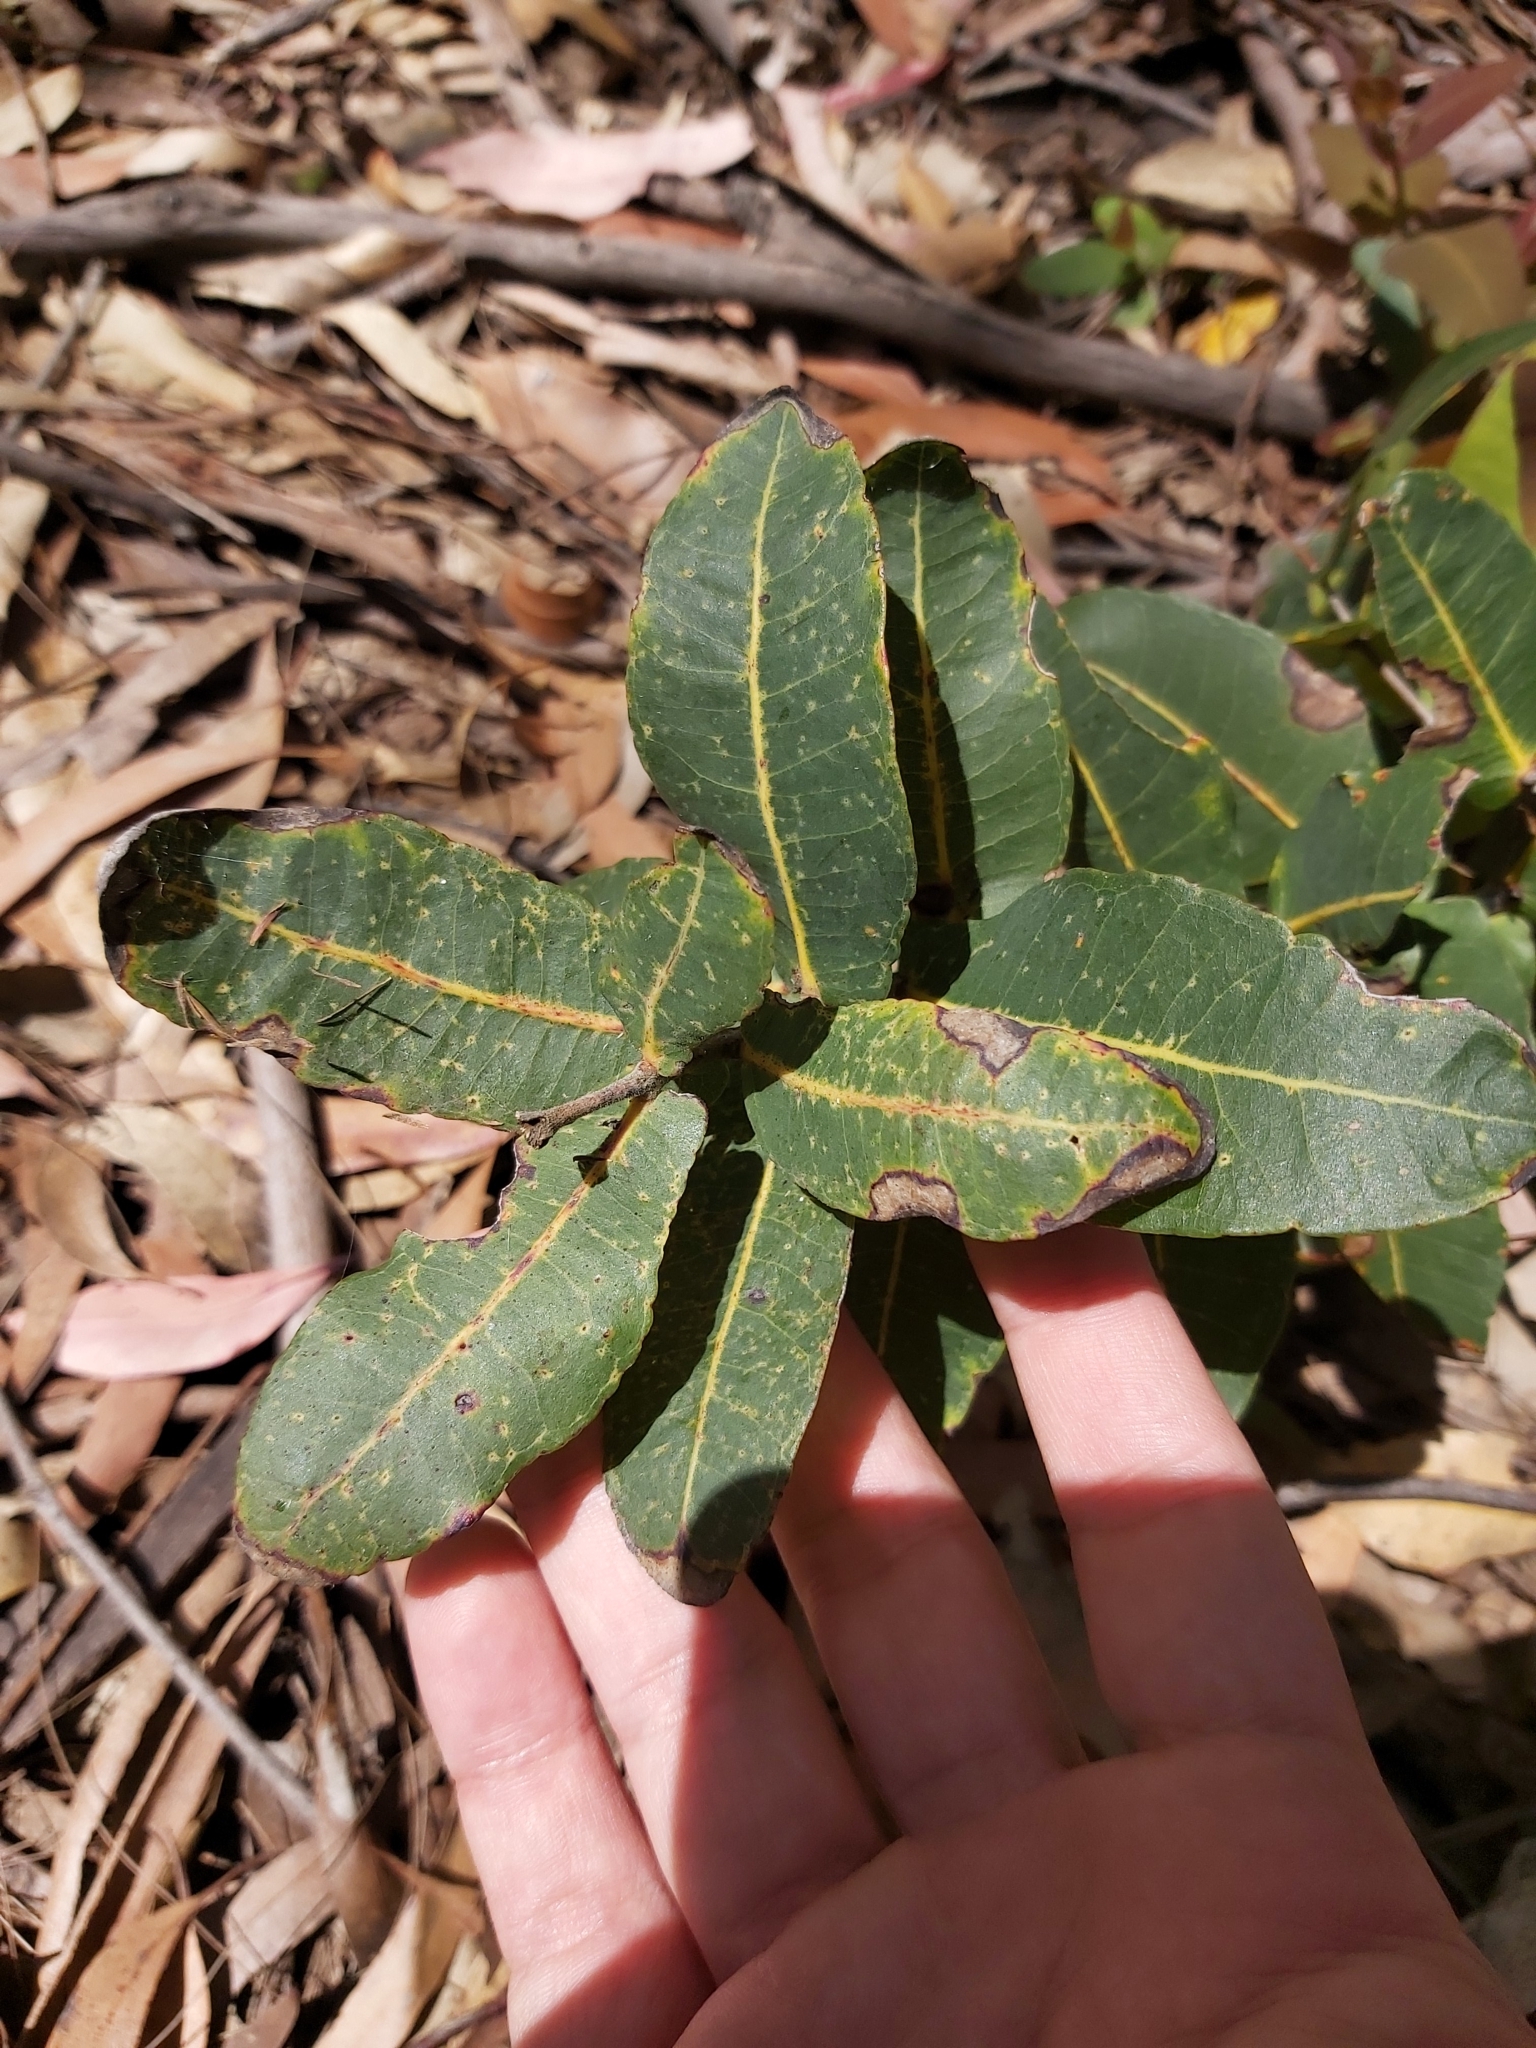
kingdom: Plantae
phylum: Tracheophyta
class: Magnoliopsida
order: Myrtales
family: Myrtaceae
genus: Angophora
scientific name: Angophora hispida
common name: Dwarf-apple
